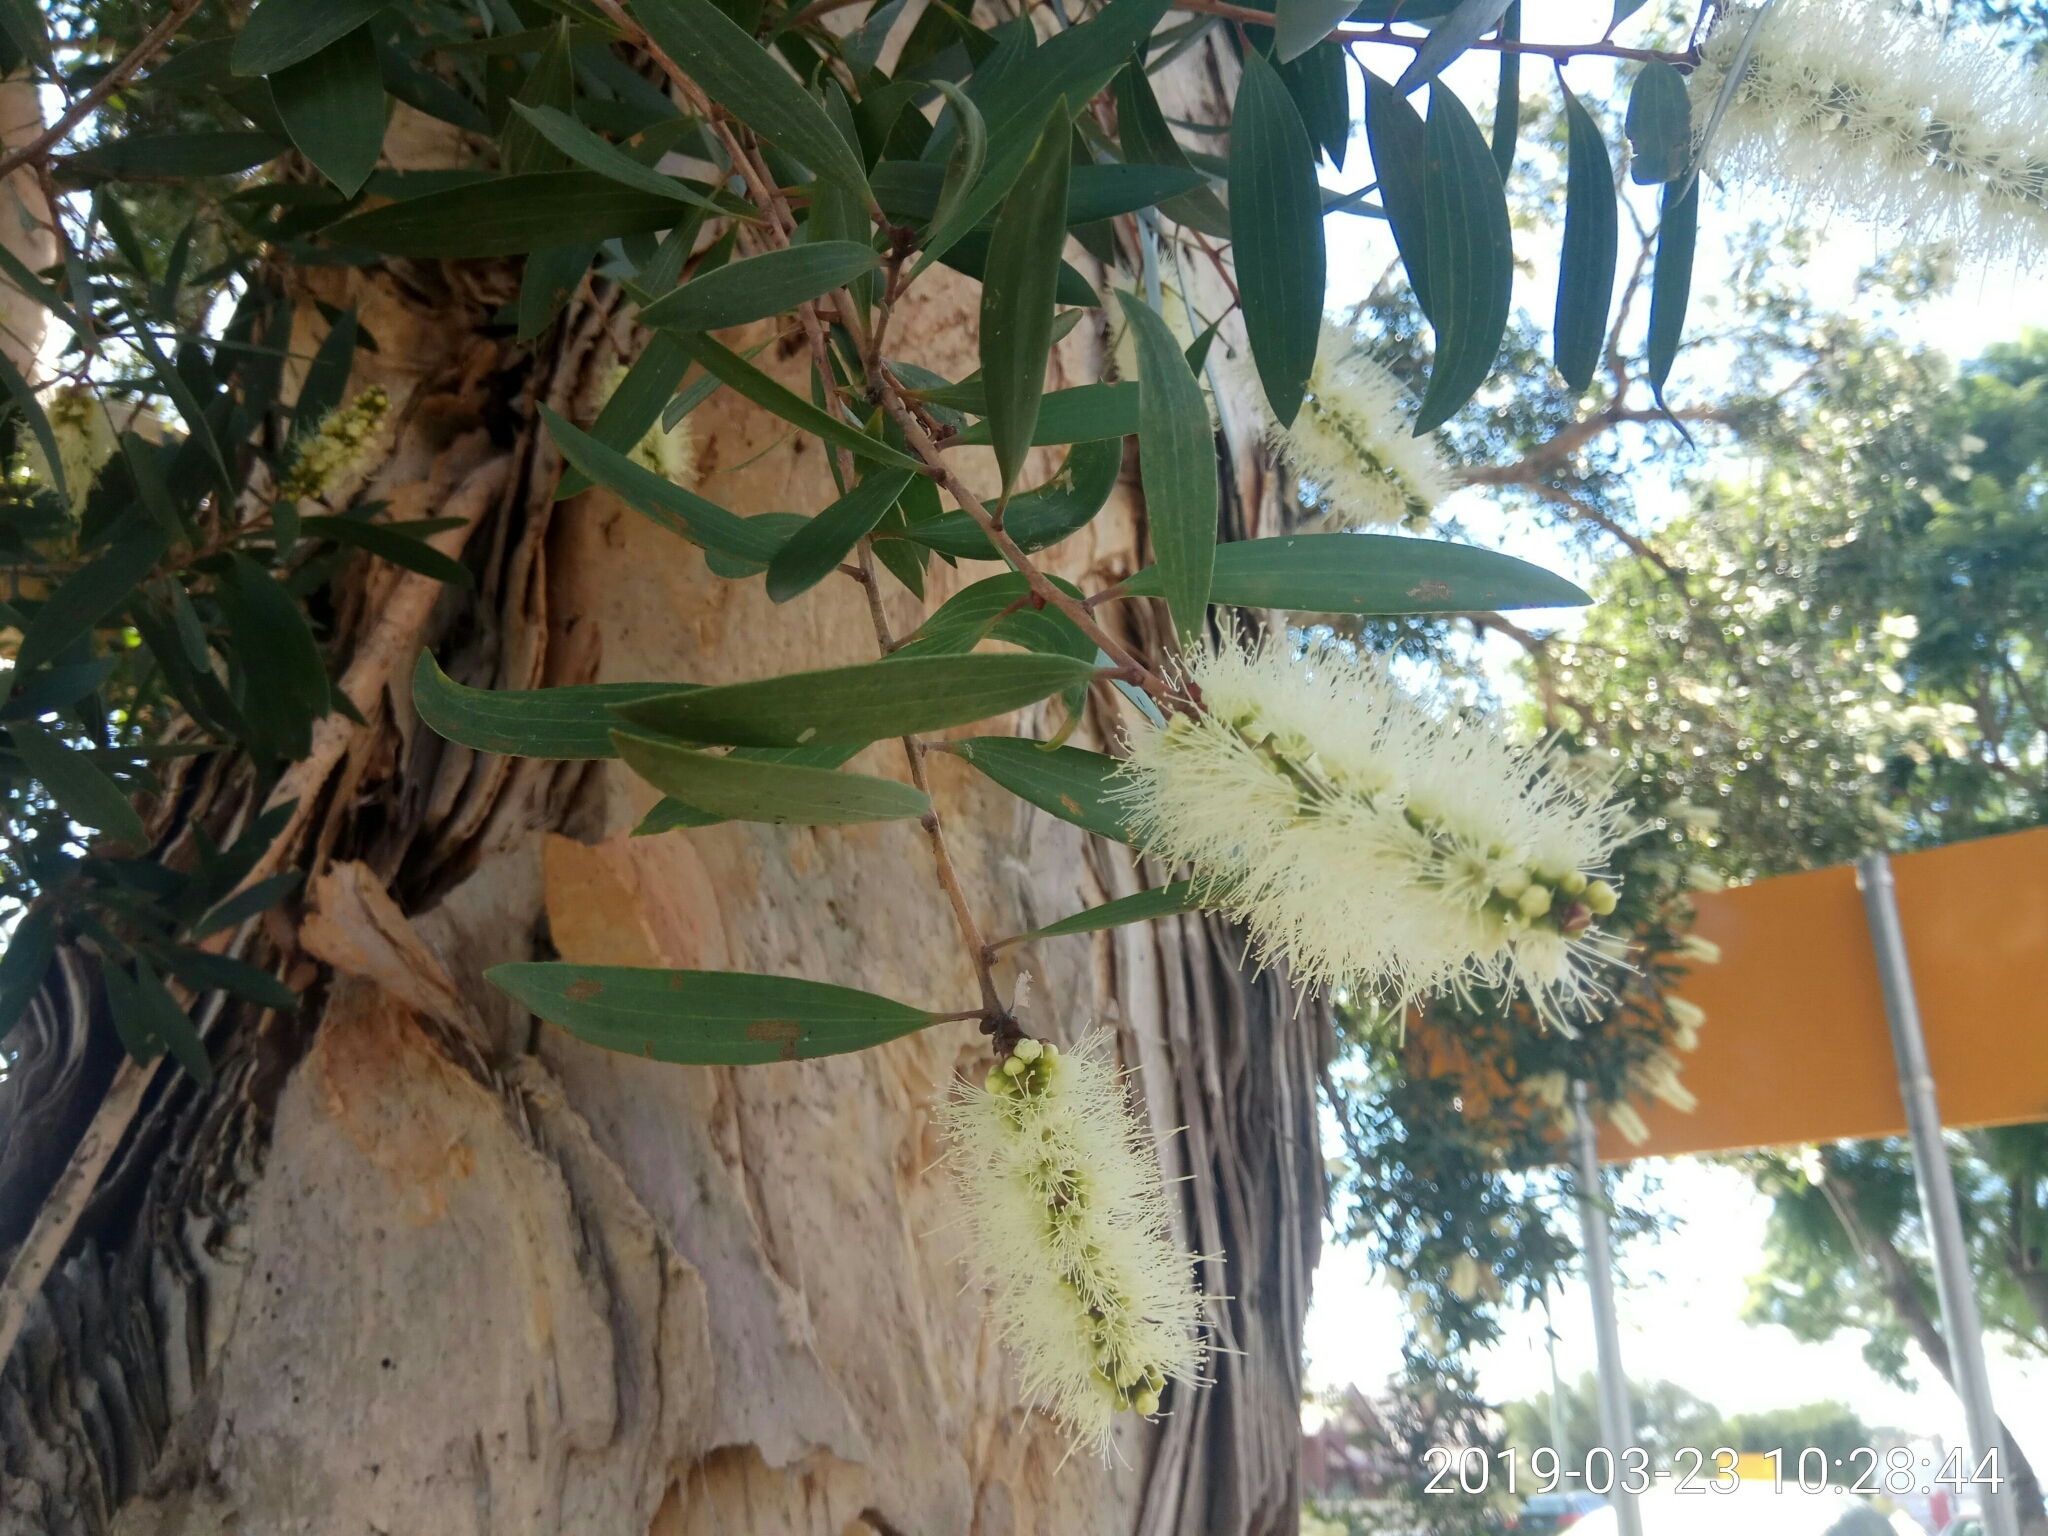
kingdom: Plantae
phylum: Tracheophyta
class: Magnoliopsida
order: Myrtales
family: Myrtaceae
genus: Melaleuca
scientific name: Melaleuca quinquenervia
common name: Punktree
